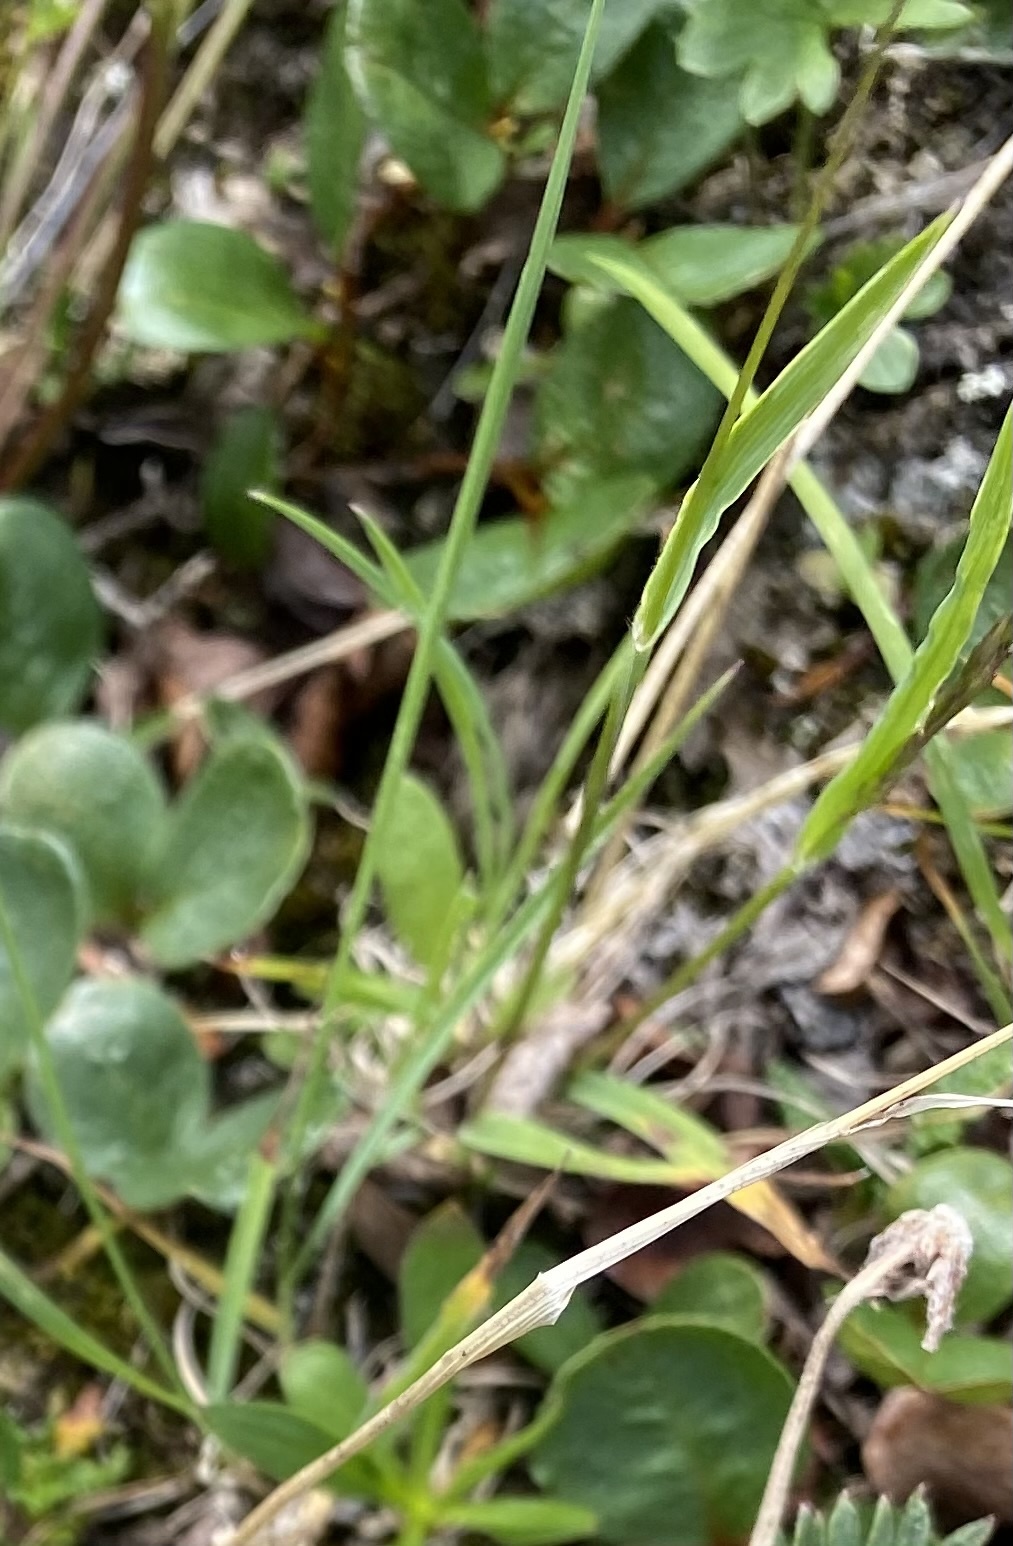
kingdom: Plantae
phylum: Tracheophyta
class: Liliopsida
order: Poales
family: Poaceae
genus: Koeleria
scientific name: Koeleria spicata
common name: Mountain trisetum
